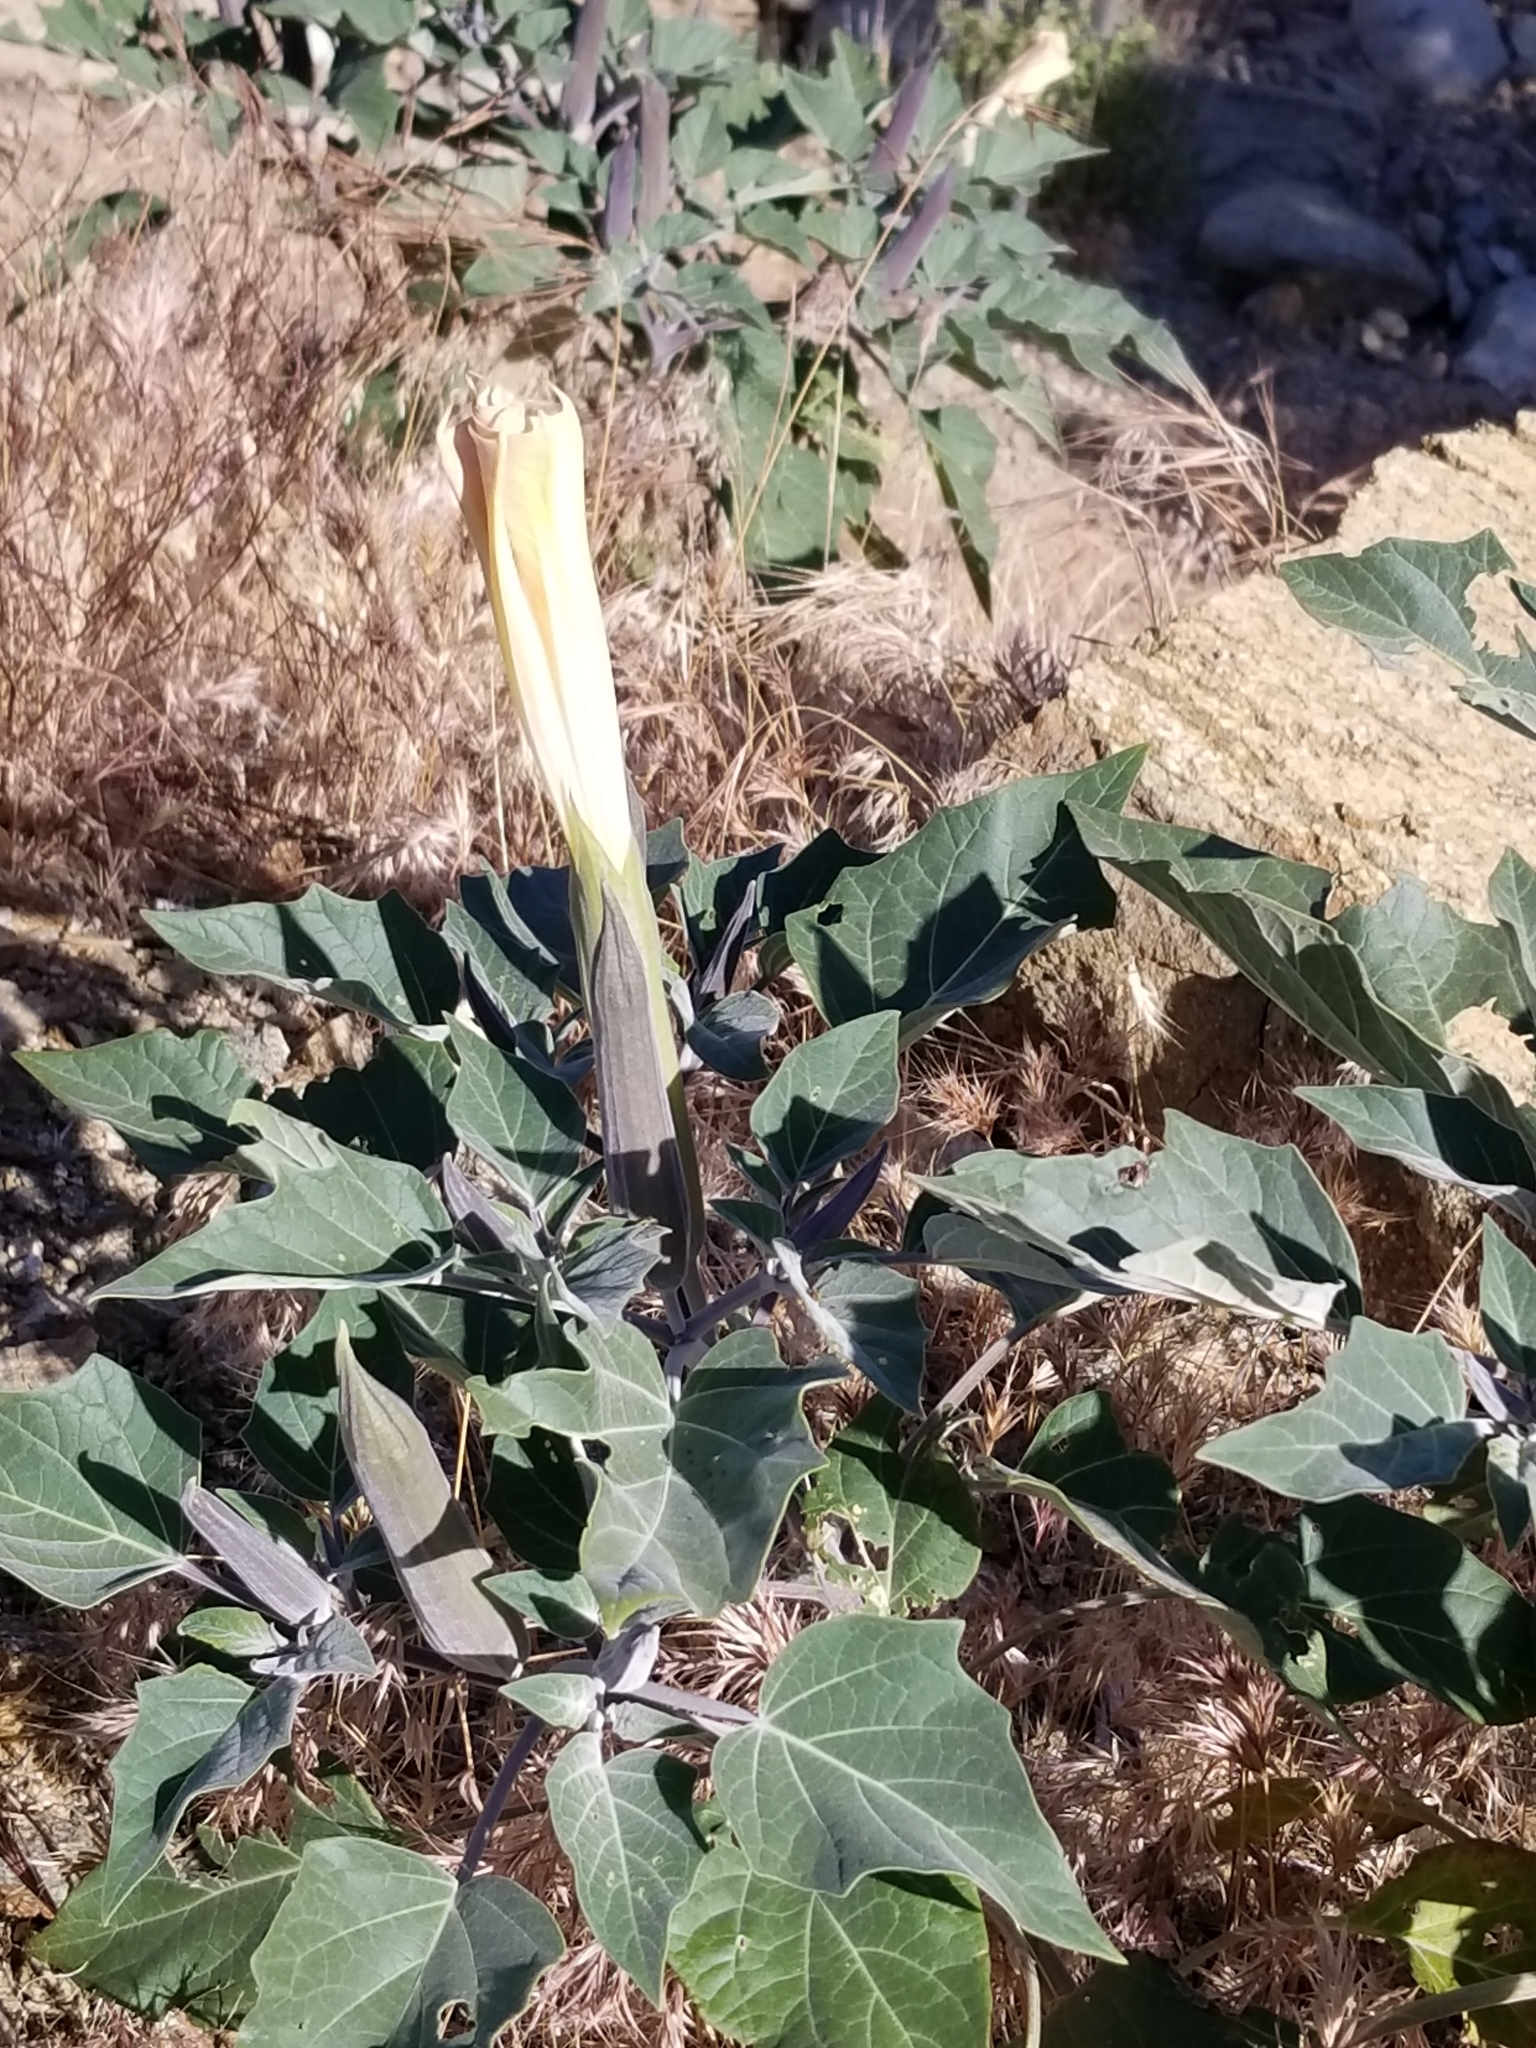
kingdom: Plantae
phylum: Tracheophyta
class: Magnoliopsida
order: Solanales
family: Solanaceae
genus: Datura
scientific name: Datura wrightii
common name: Sacred thorn-apple
